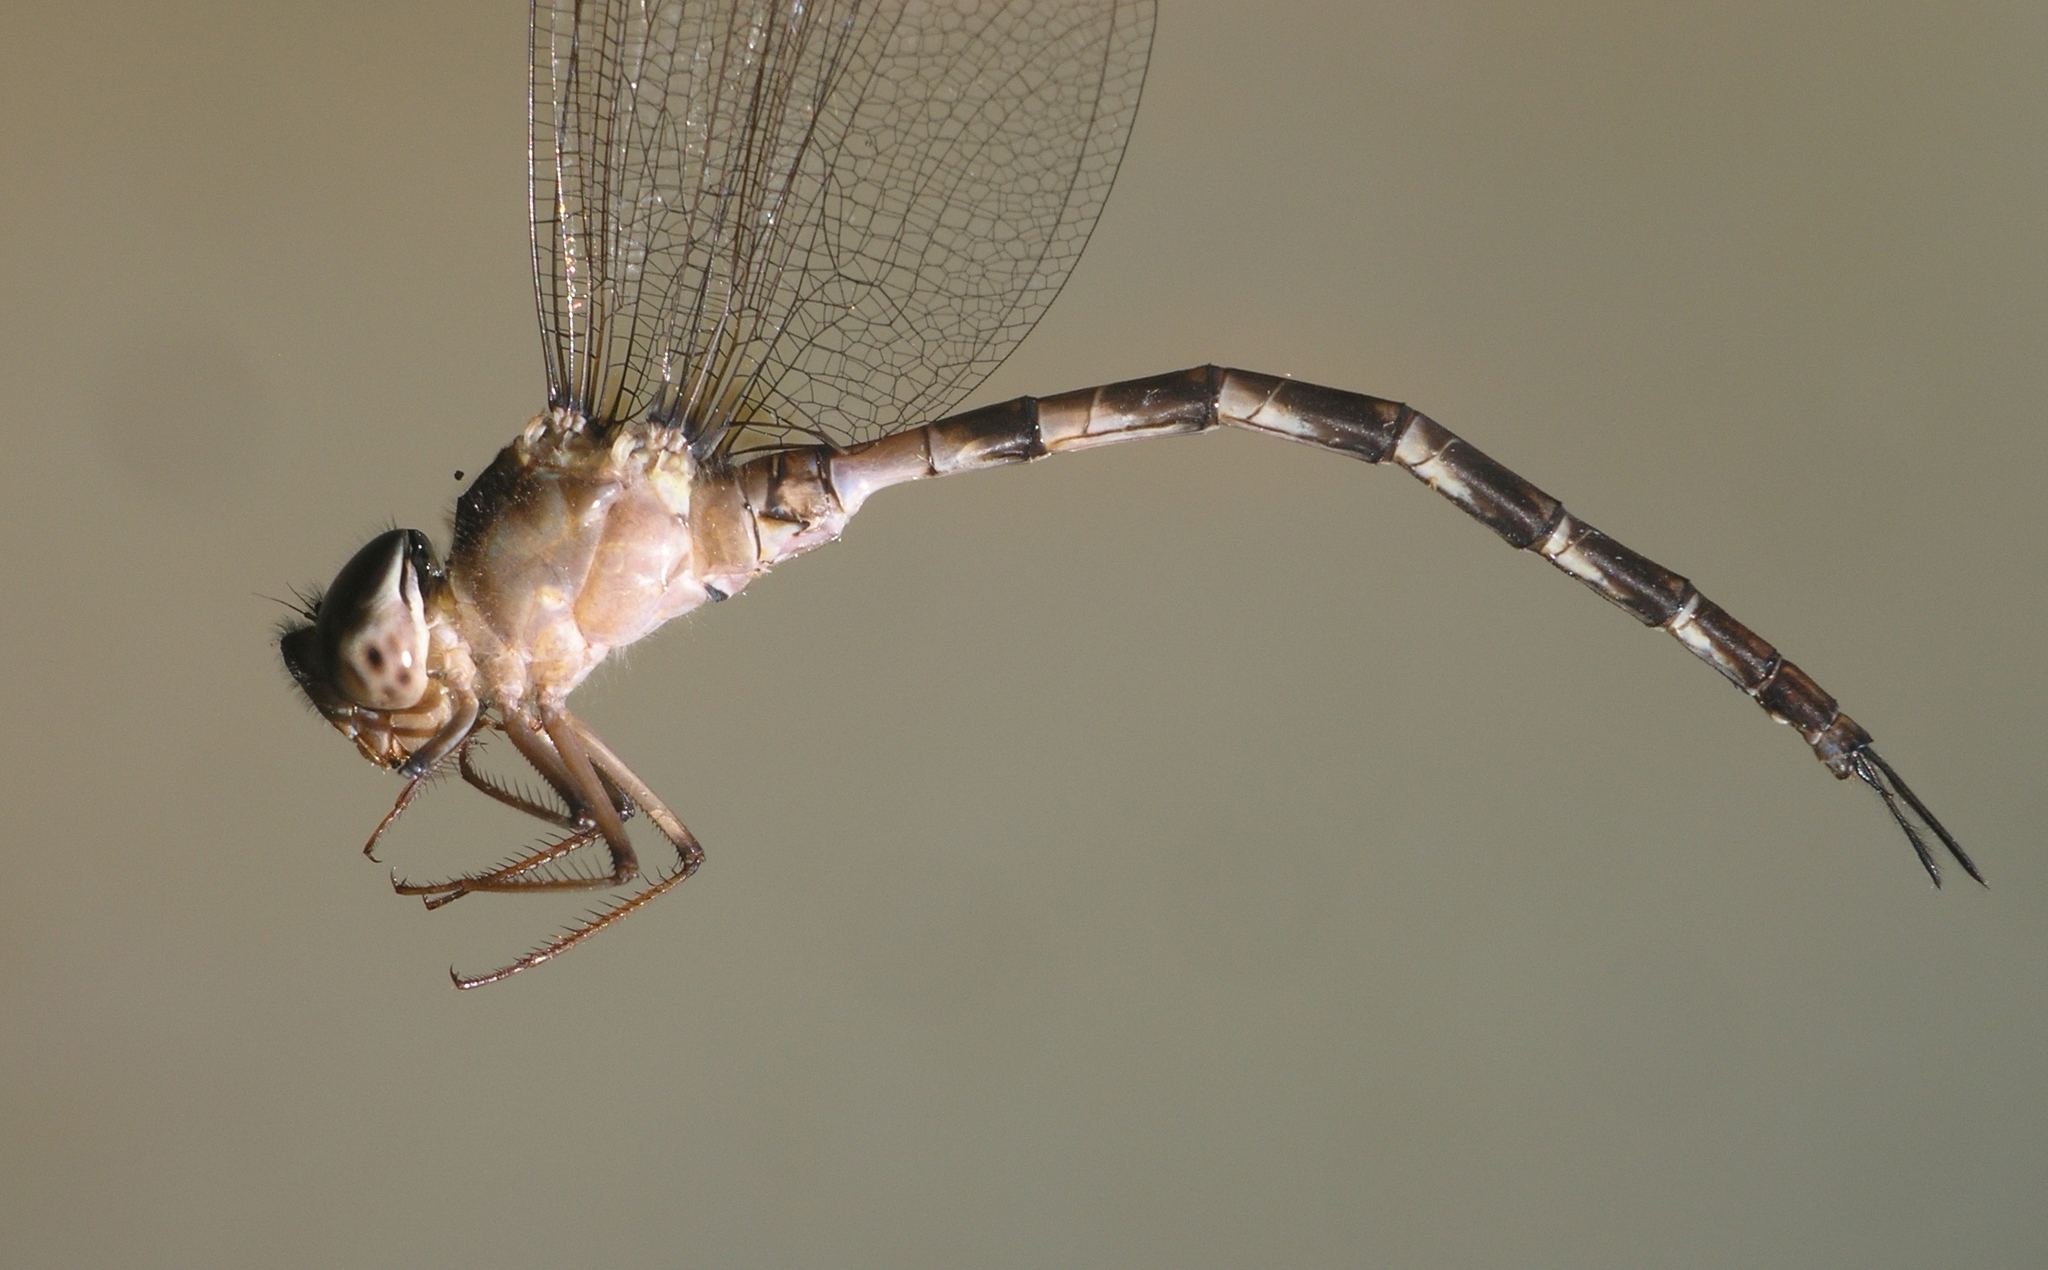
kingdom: Animalia
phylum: Arthropoda
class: Insecta
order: Odonata
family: Aeshnidae
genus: Gynacantha
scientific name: Gynacantha subinterrupta
